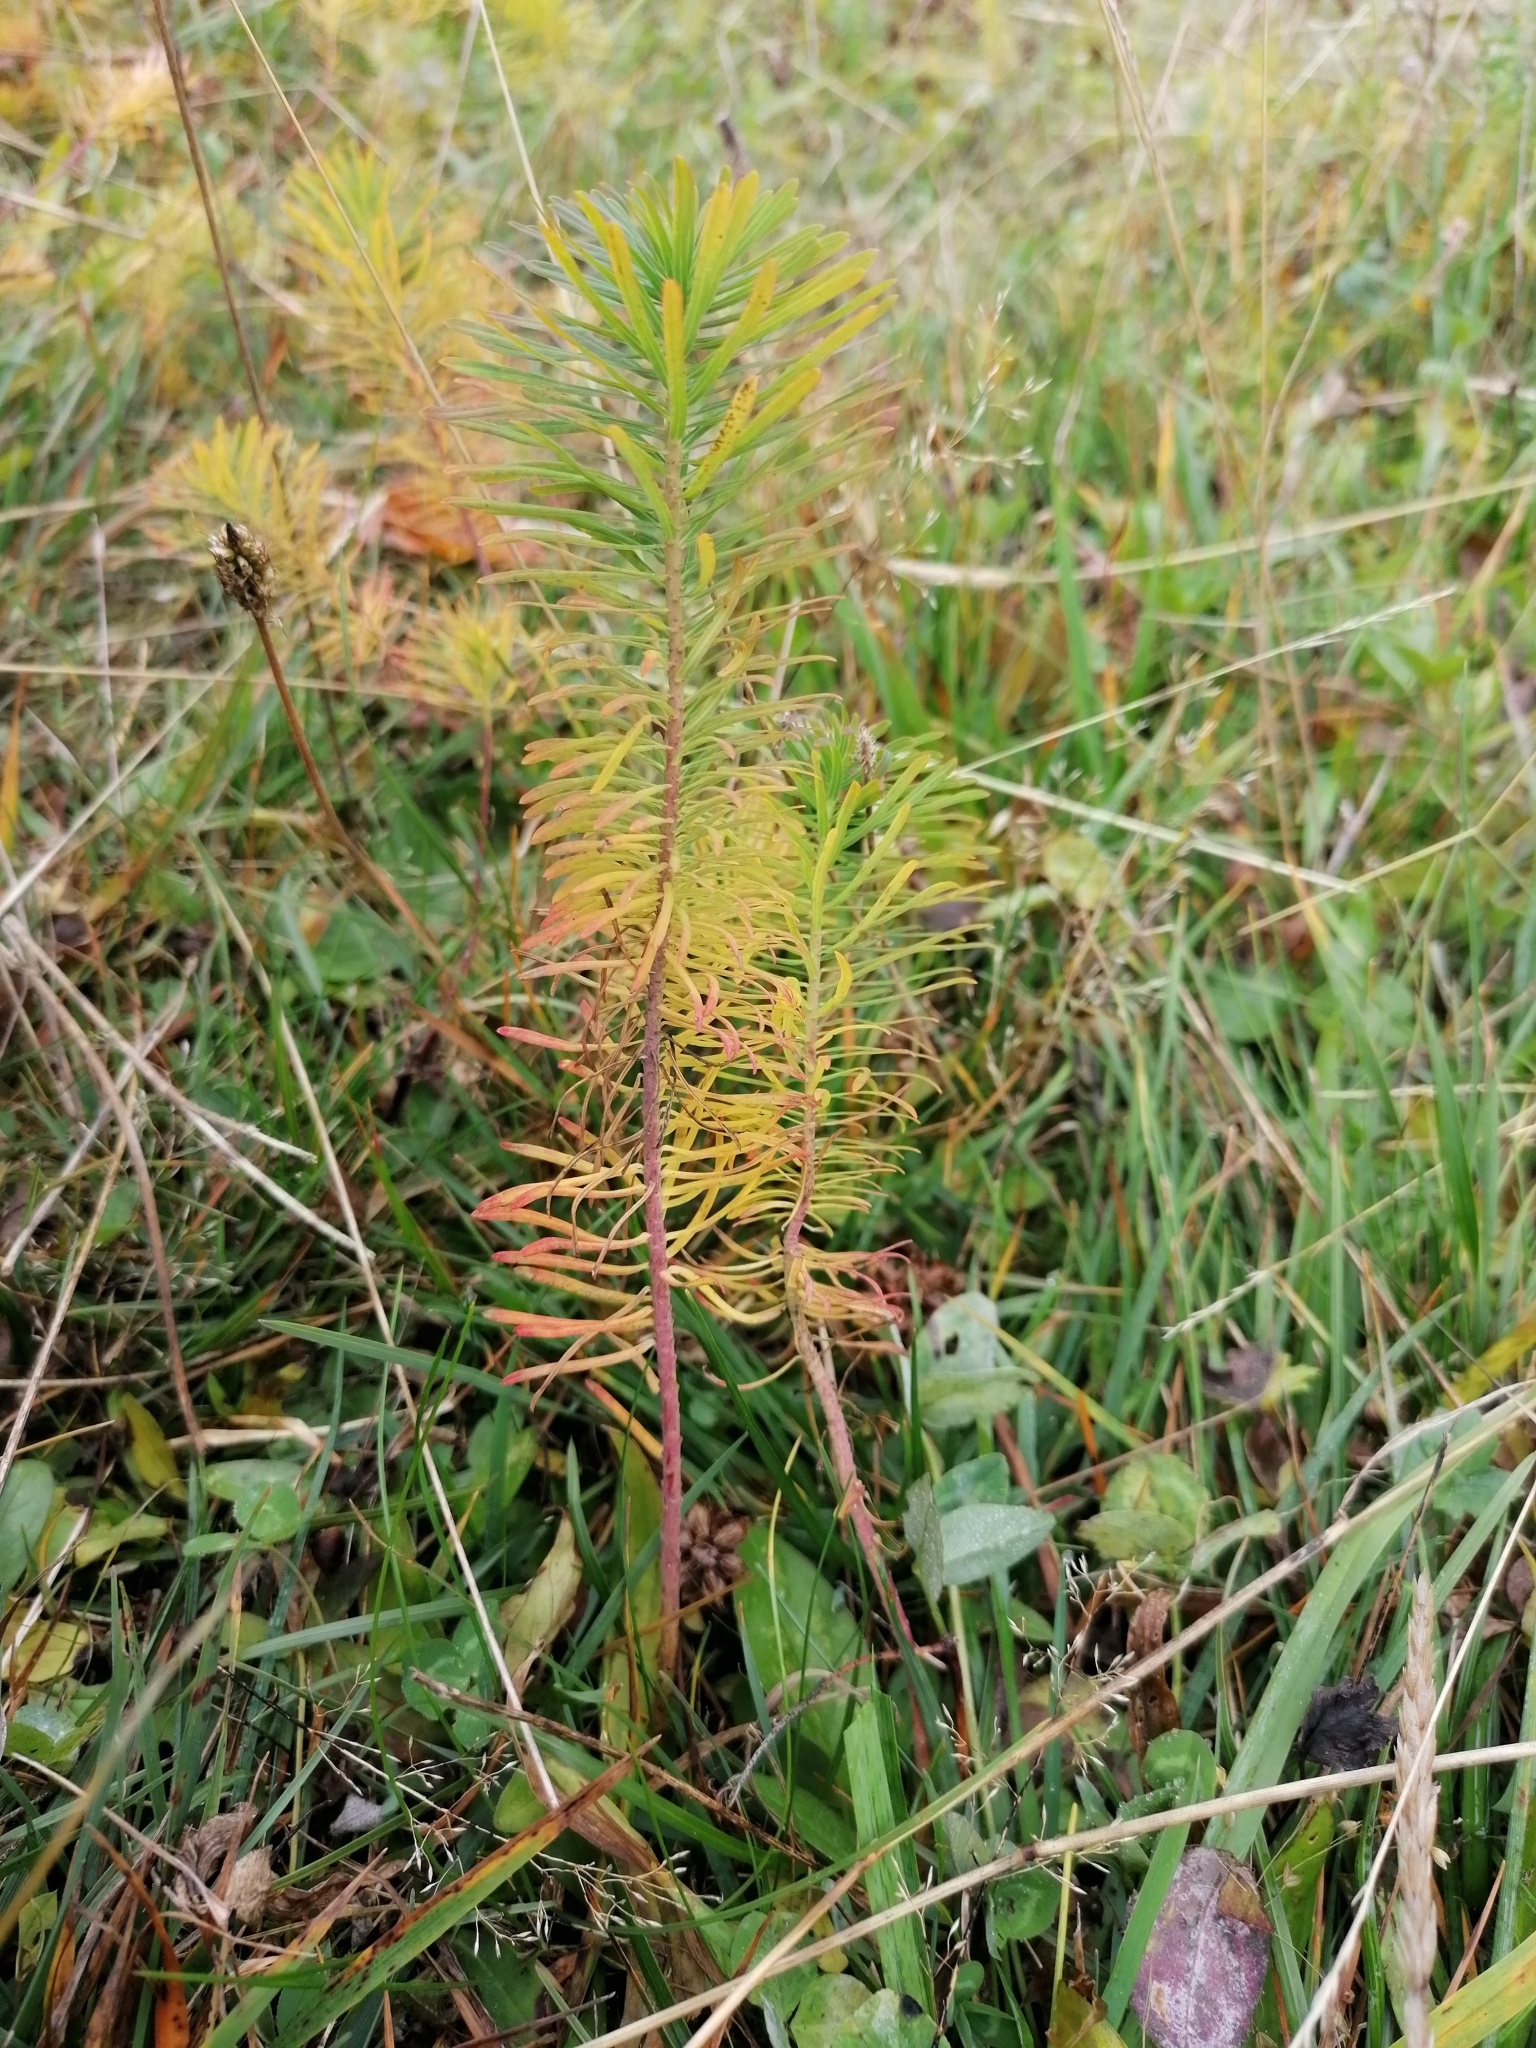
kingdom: Plantae
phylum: Tracheophyta
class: Magnoliopsida
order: Malpighiales
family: Euphorbiaceae
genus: Euphorbia
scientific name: Euphorbia cyparissias
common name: Cypress spurge
